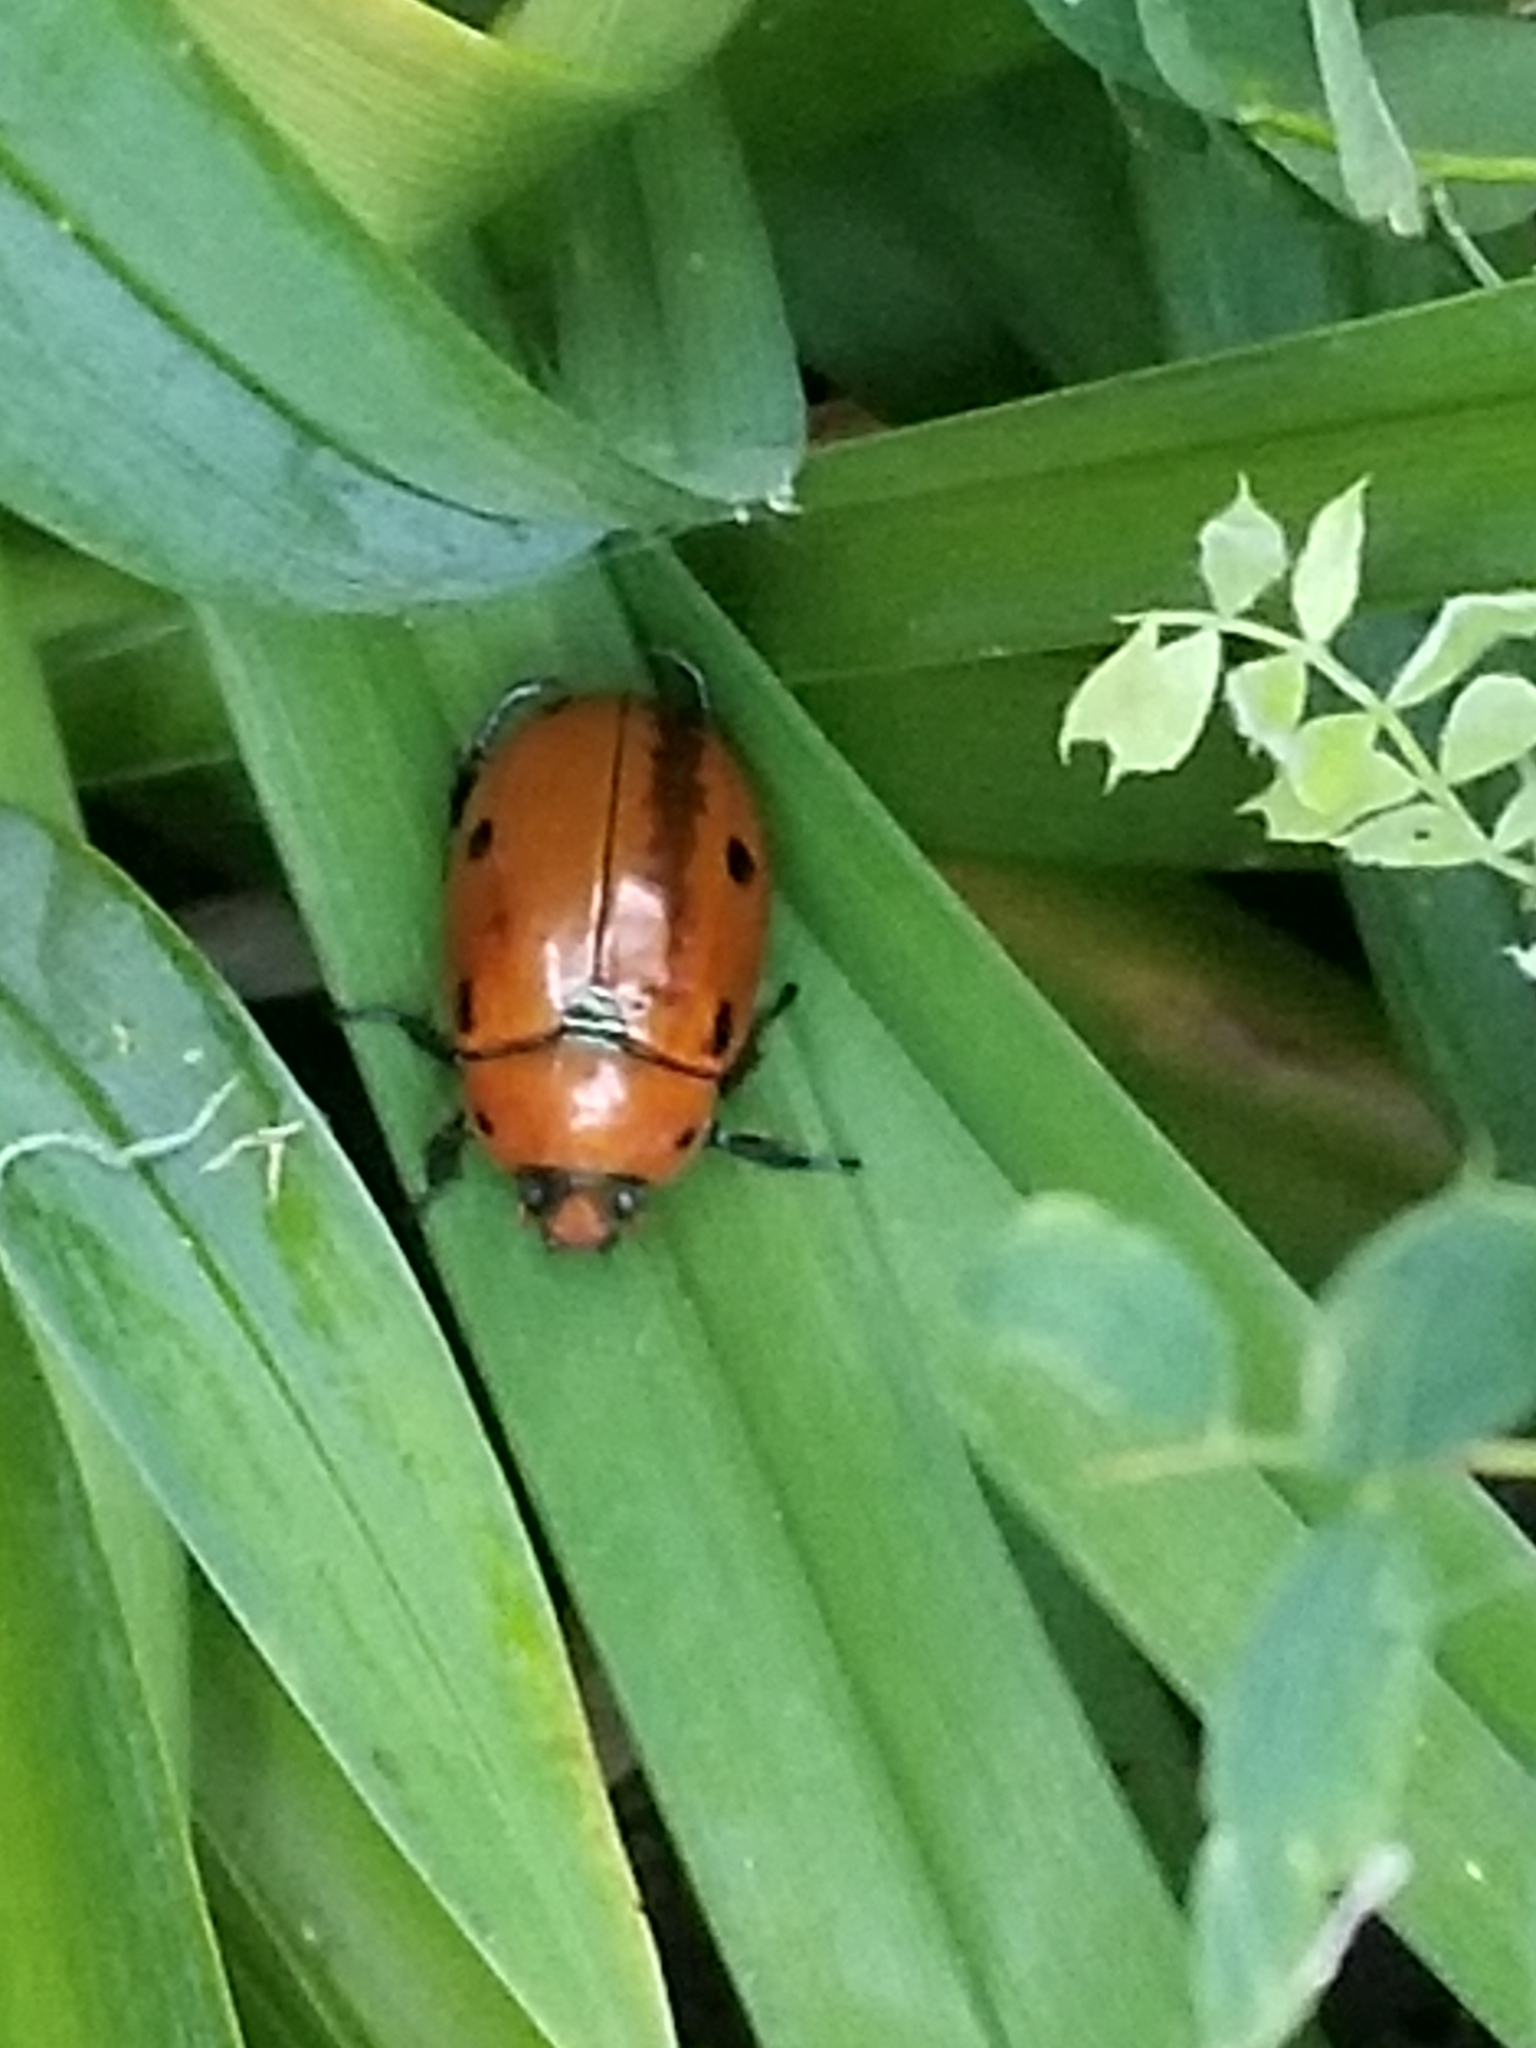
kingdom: Animalia
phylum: Arthropoda
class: Insecta
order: Coleoptera
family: Scarabaeidae
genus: Pelidnota
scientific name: Pelidnota punctata
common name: Grapevine beetle
